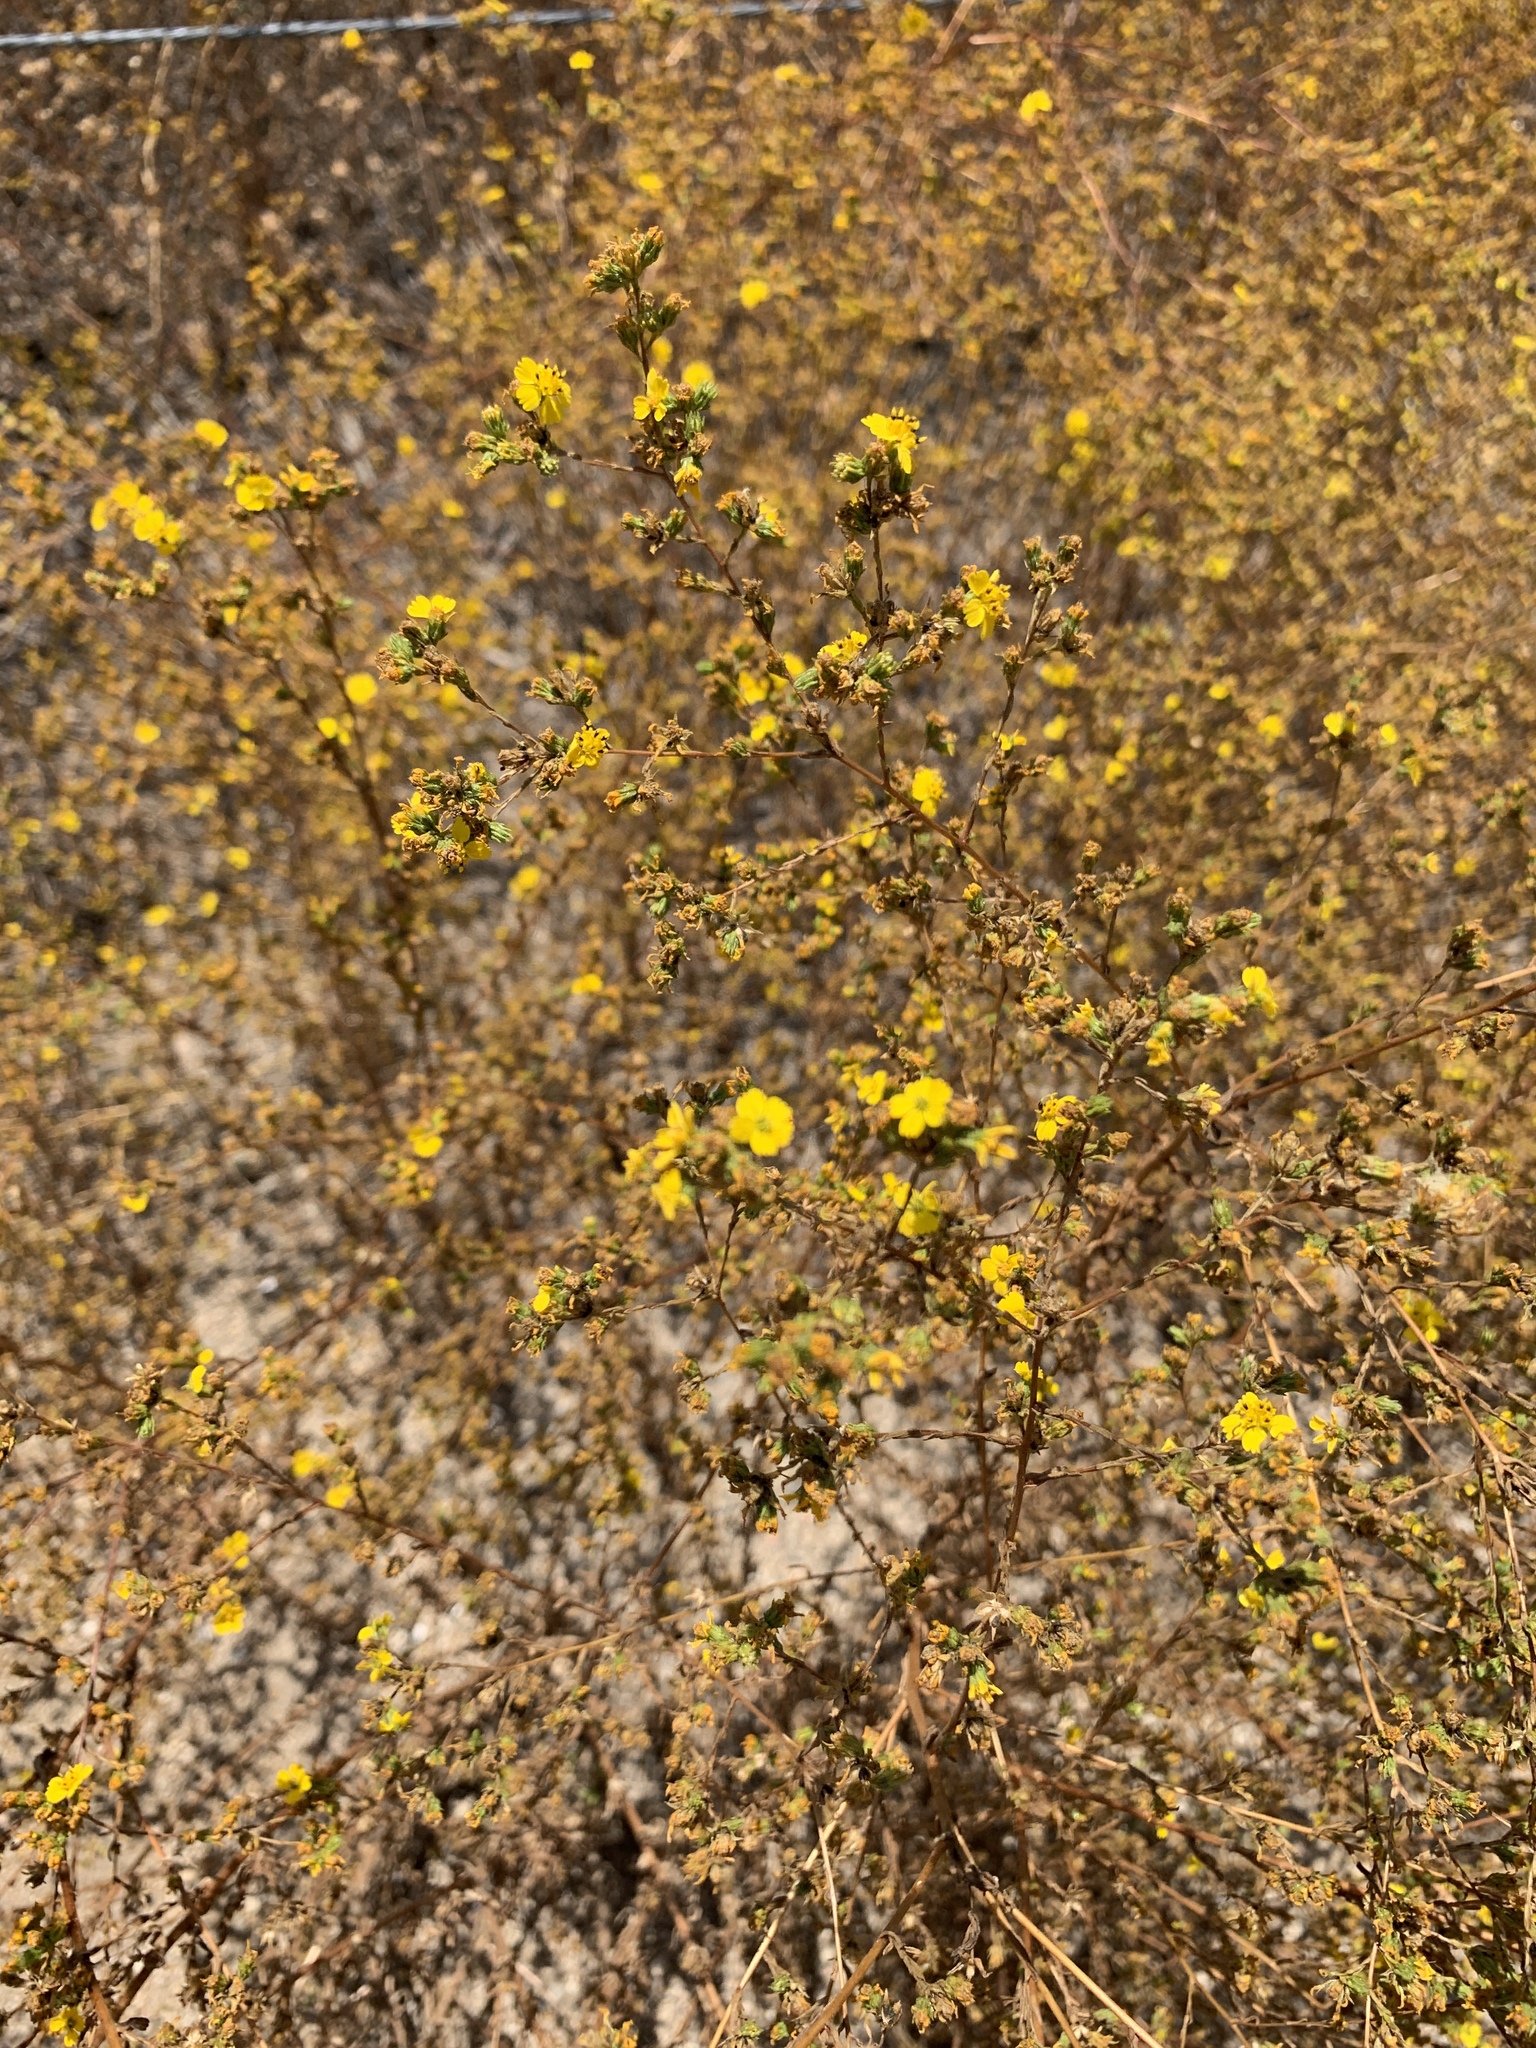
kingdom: Plantae
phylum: Tracheophyta
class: Magnoliopsida
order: Asterales
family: Asteraceae
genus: Deinandra
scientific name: Deinandra fasciculata
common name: Clustered tarweed
